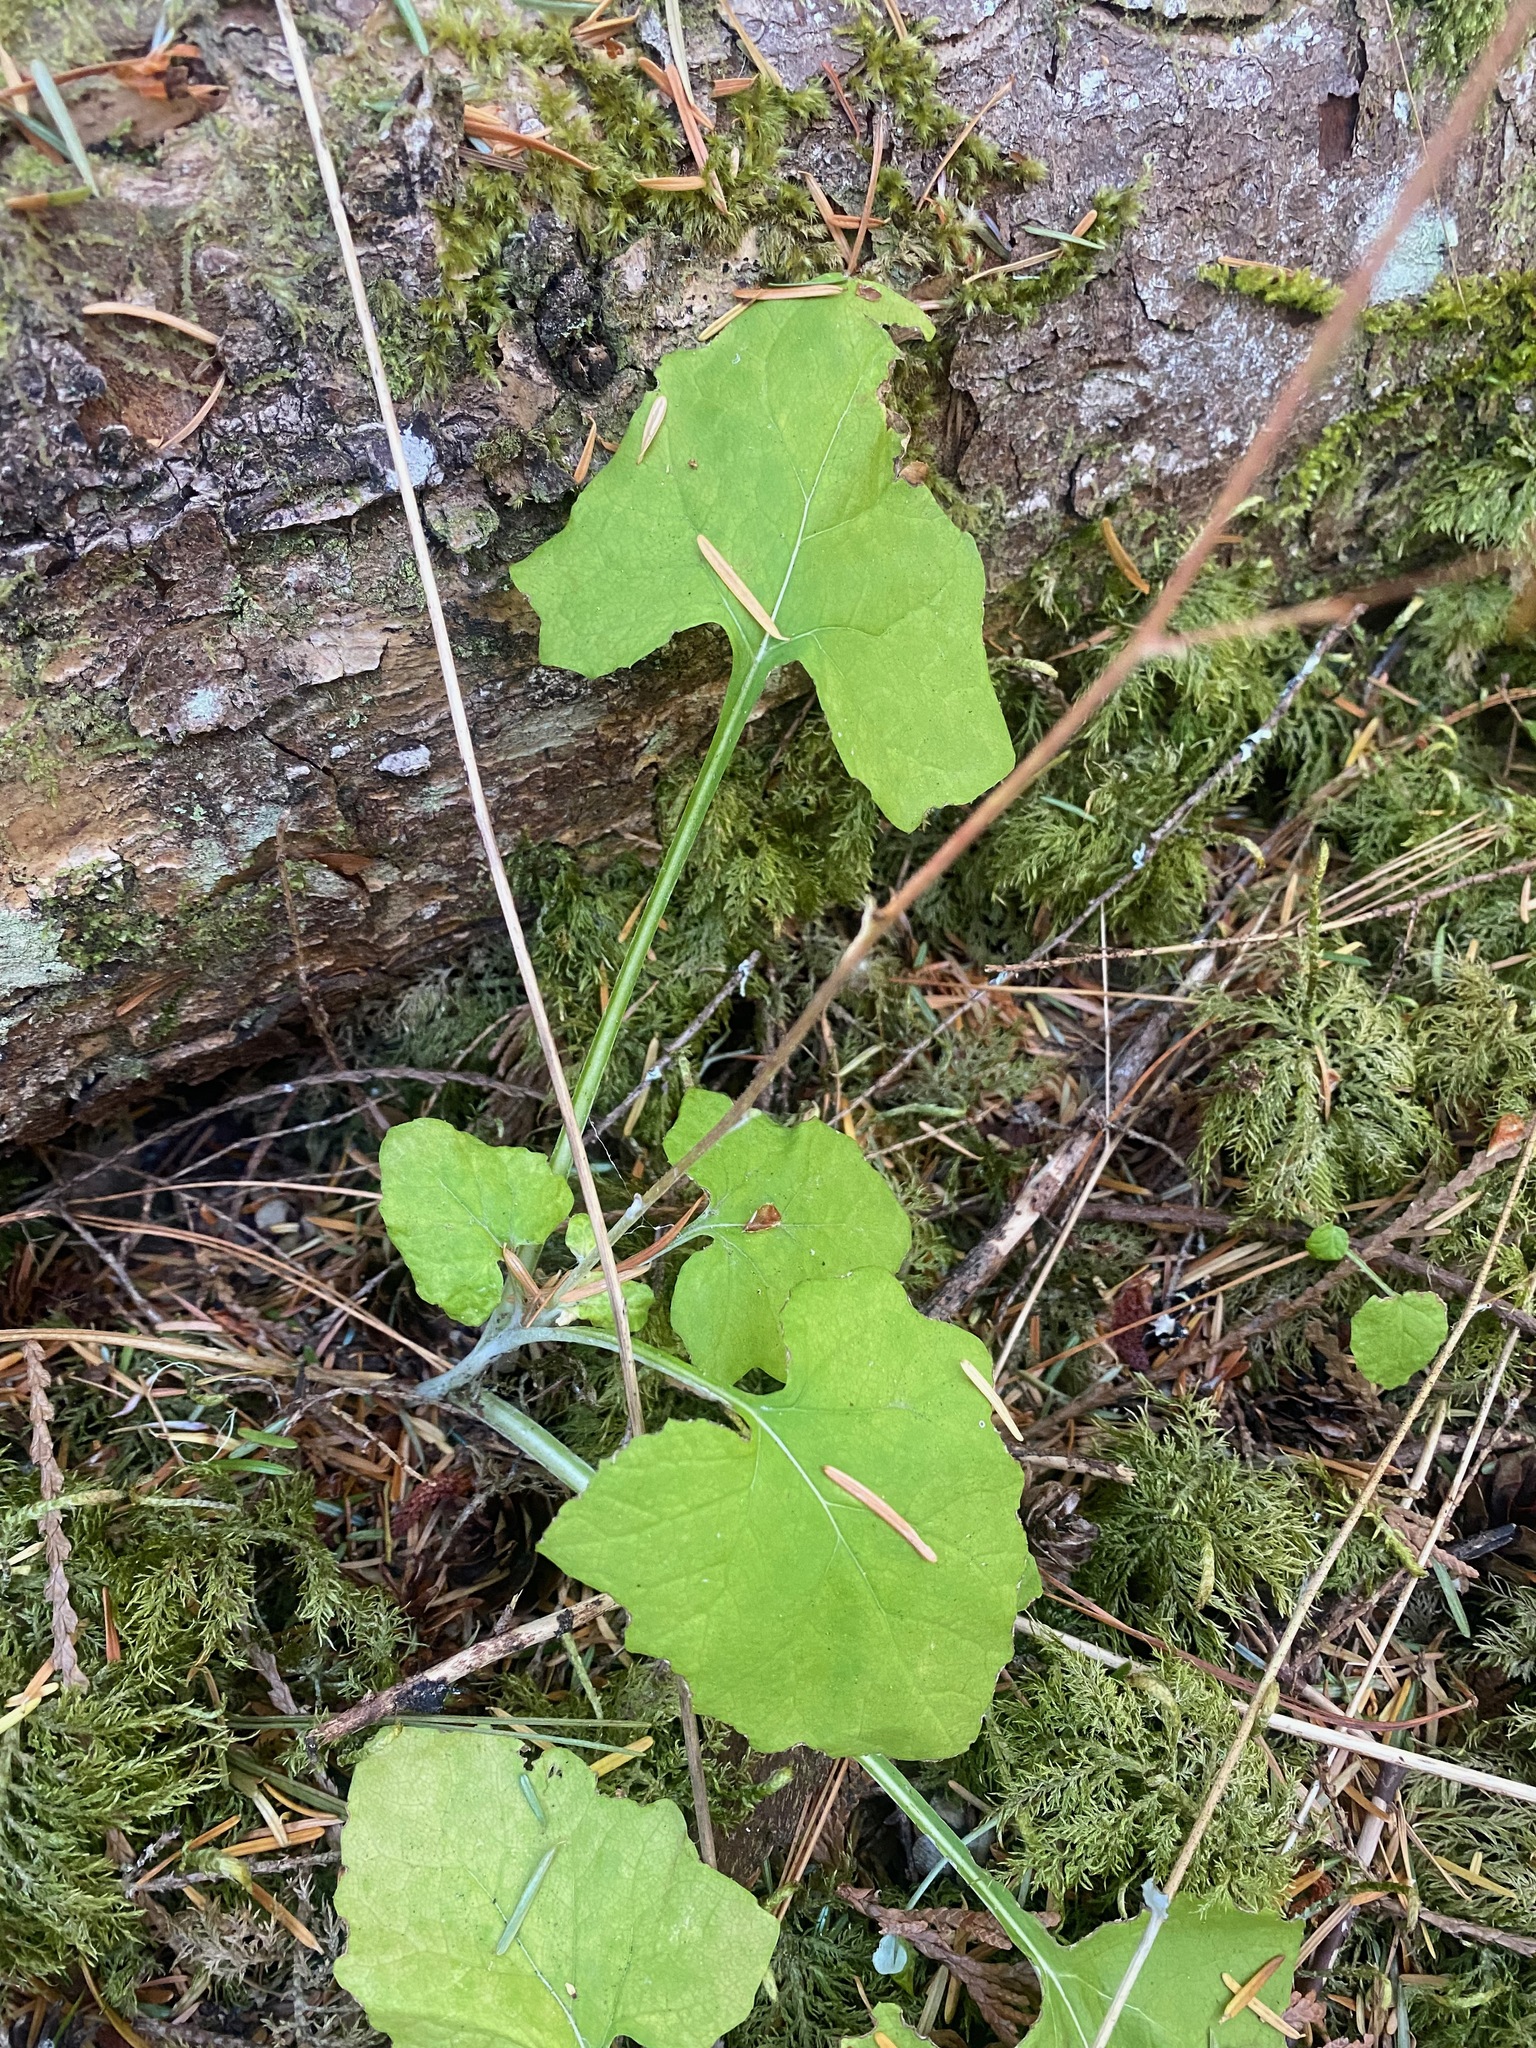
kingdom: Plantae
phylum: Tracheophyta
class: Magnoliopsida
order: Asterales
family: Asteraceae
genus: Adenocaulon
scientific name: Adenocaulon bicolor
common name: Trailplant
